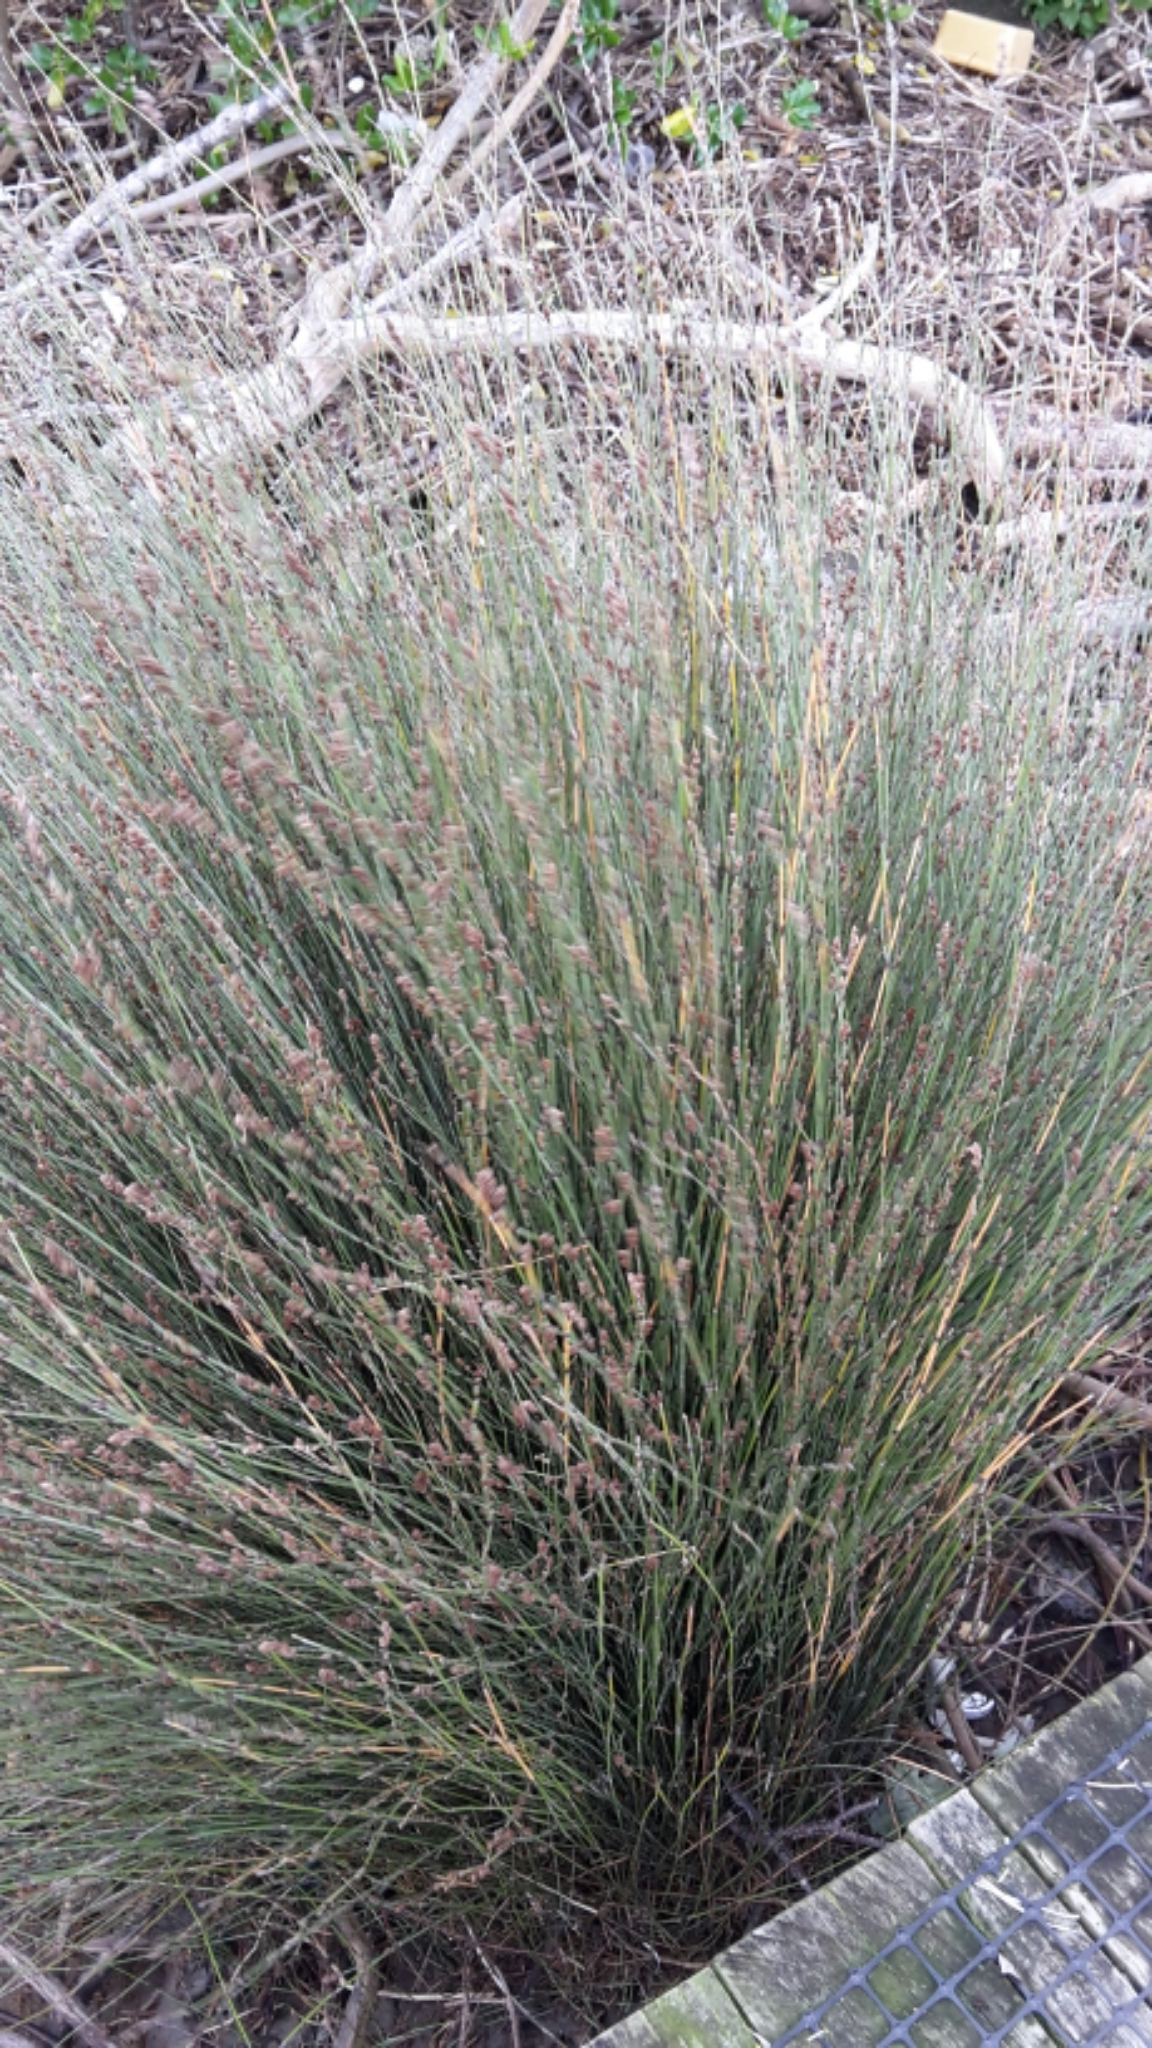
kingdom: Plantae
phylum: Tracheophyta
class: Liliopsida
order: Poales
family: Restionaceae
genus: Apodasmia
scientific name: Apodasmia similis
